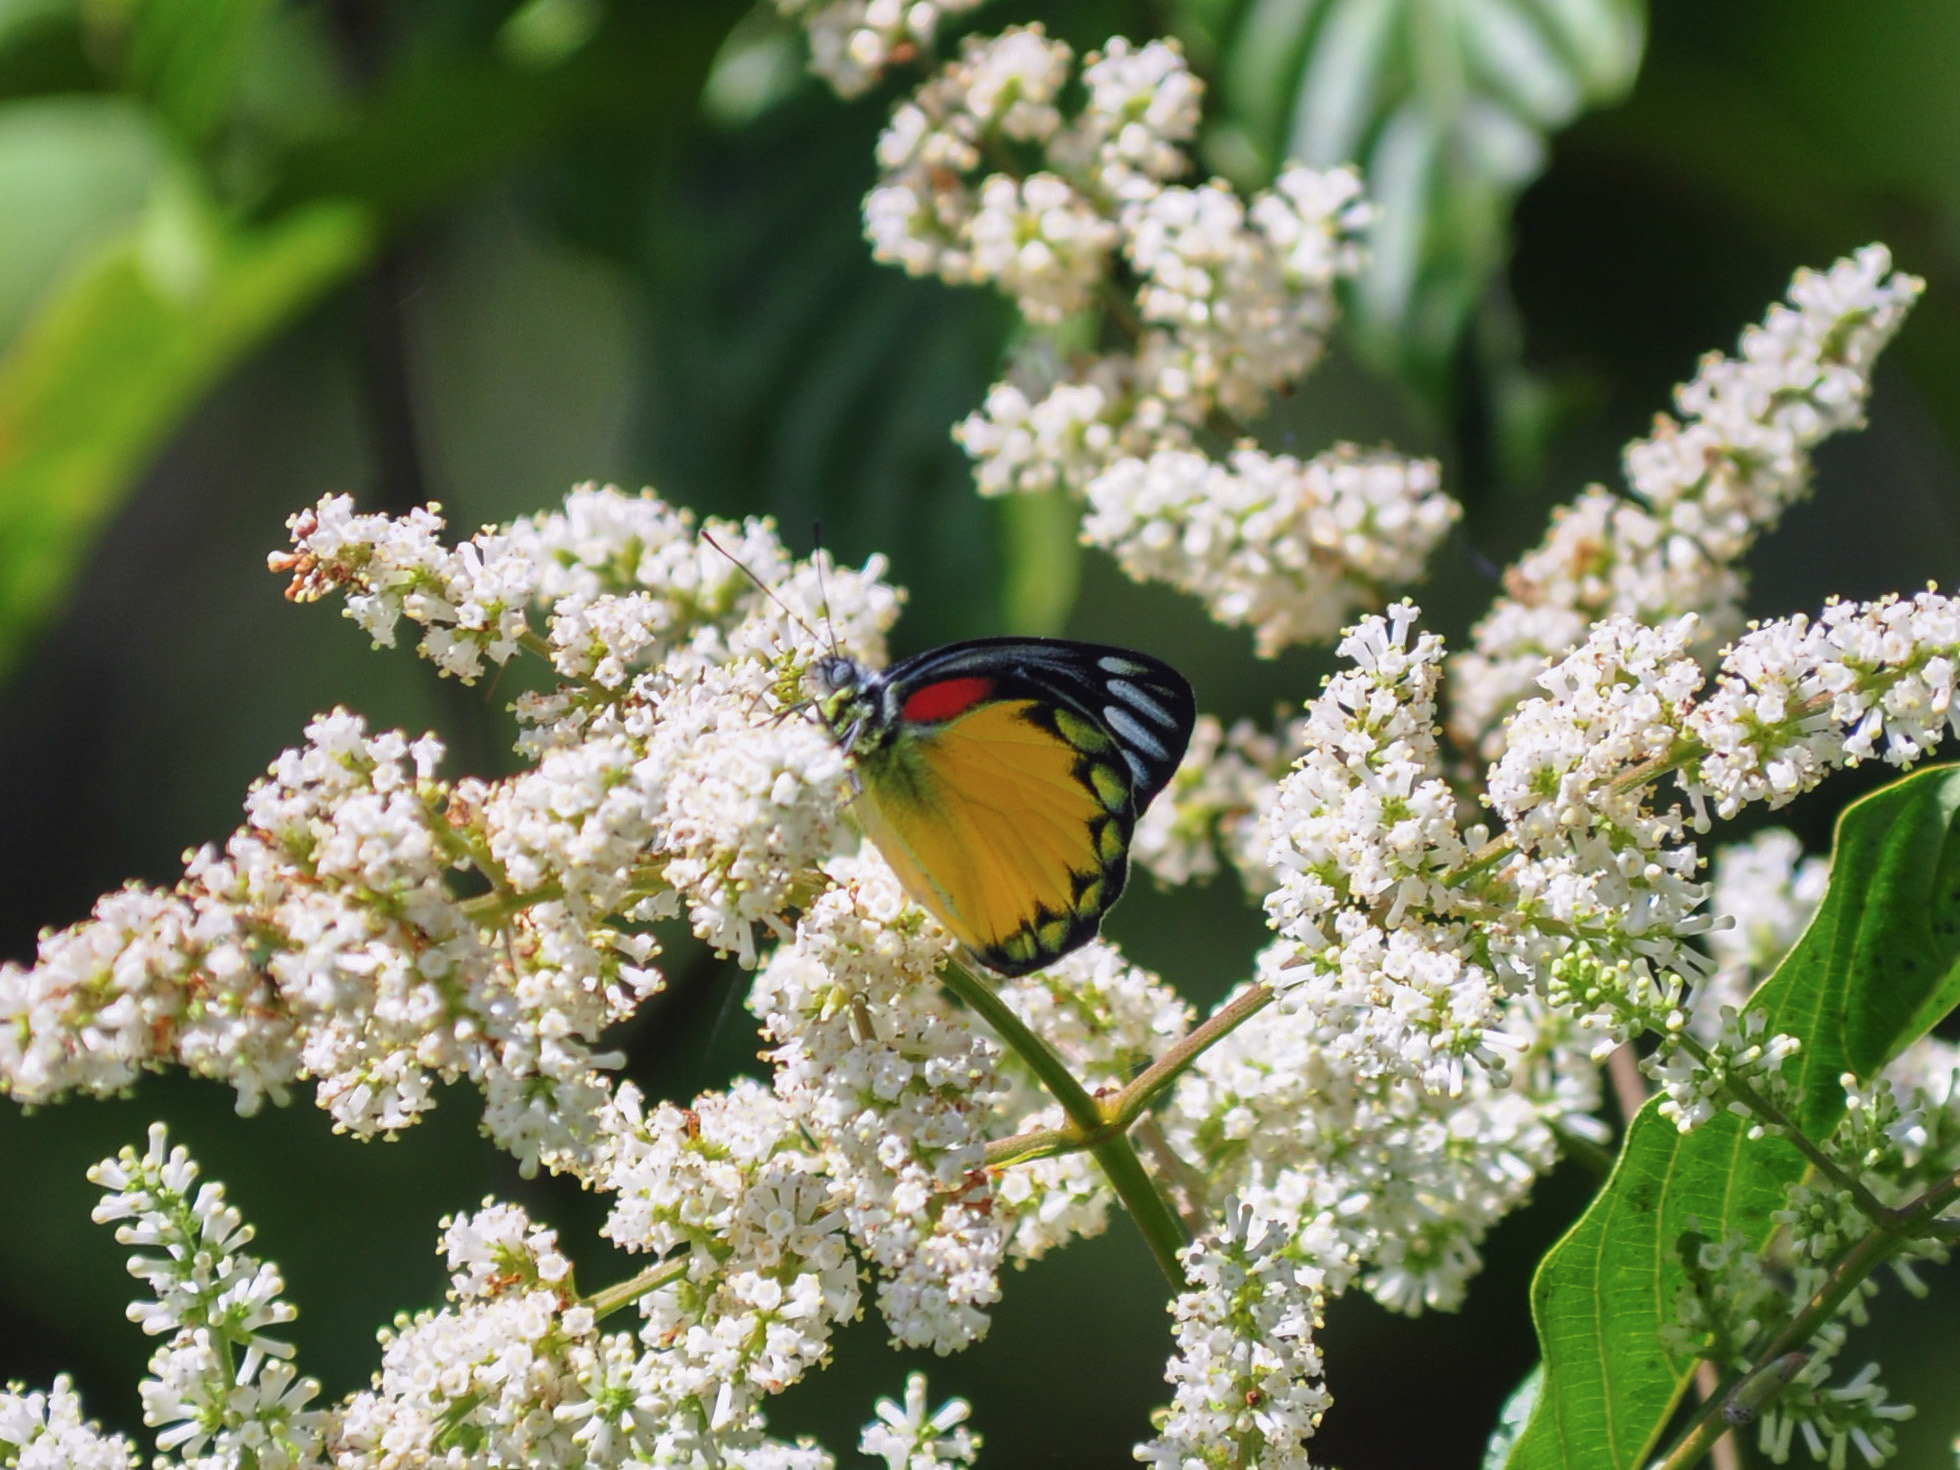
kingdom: Animalia
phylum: Arthropoda
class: Insecta
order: Lepidoptera
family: Pieridae
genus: Delias
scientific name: Delias descombesi
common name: Red-spot jezebel
